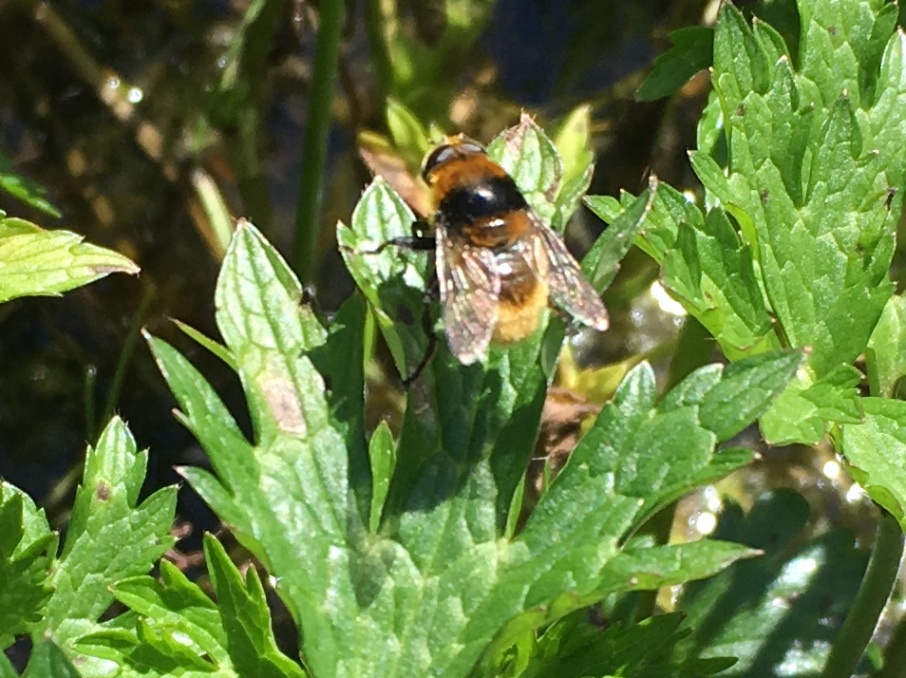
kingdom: Animalia
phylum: Arthropoda
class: Insecta
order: Diptera
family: Syrphidae
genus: Merodon
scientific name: Merodon equestris
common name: Greater bulb-fly
